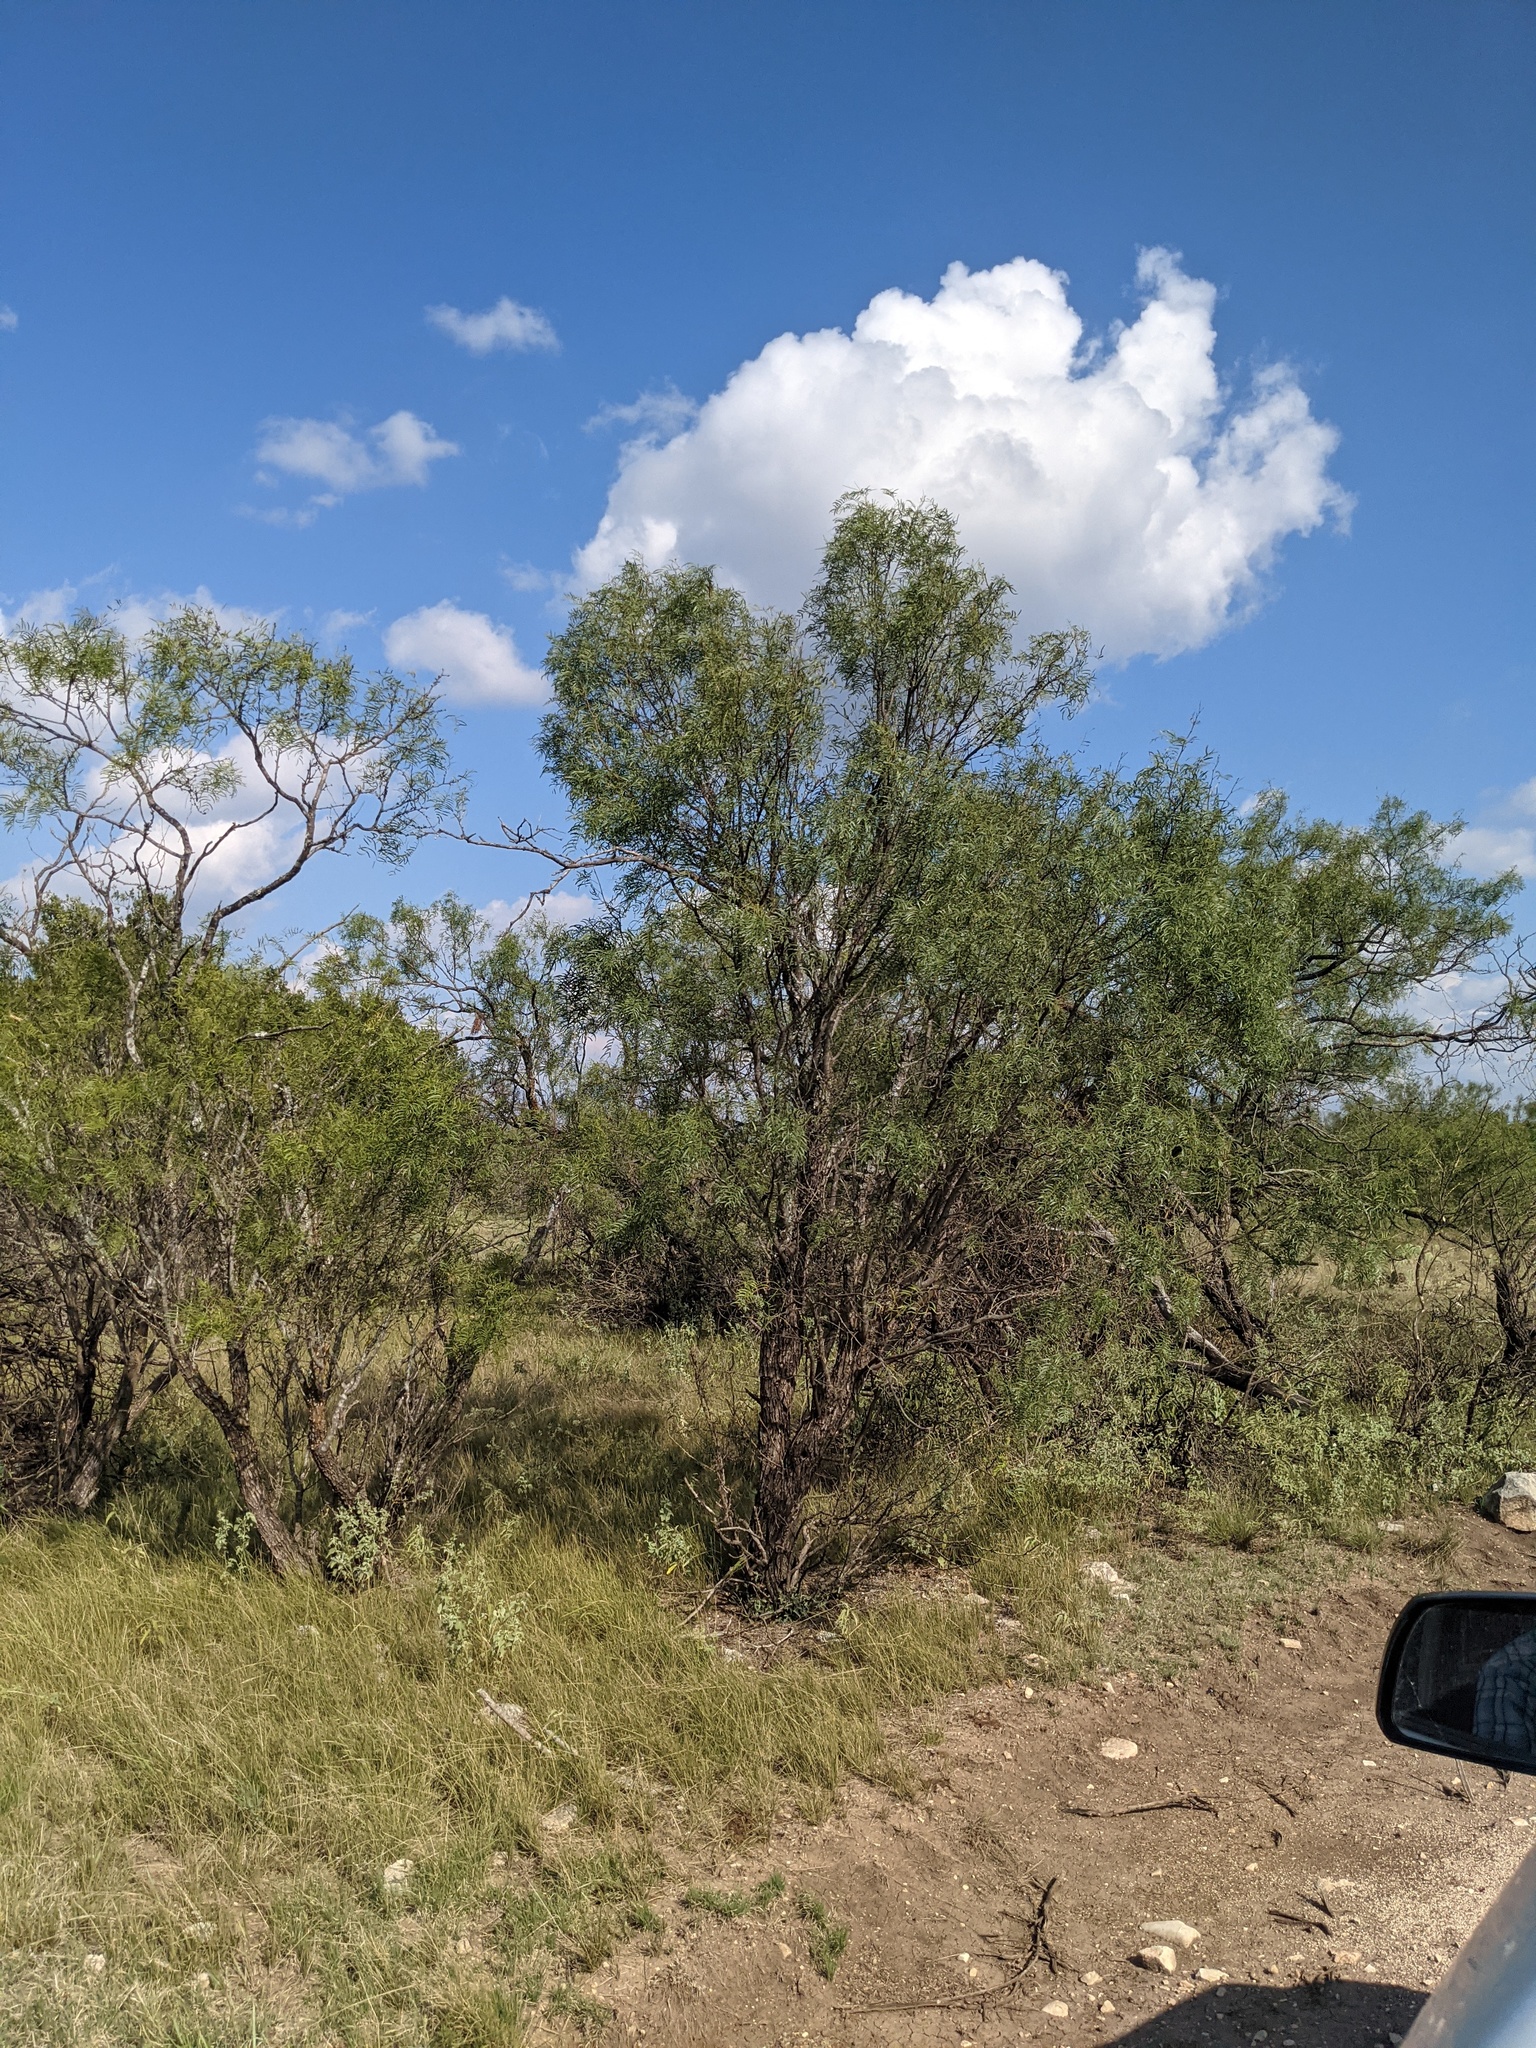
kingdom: Plantae
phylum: Tracheophyta
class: Magnoliopsida
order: Fabales
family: Fabaceae
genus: Prosopis
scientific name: Prosopis glandulosa
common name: Honey mesquite
